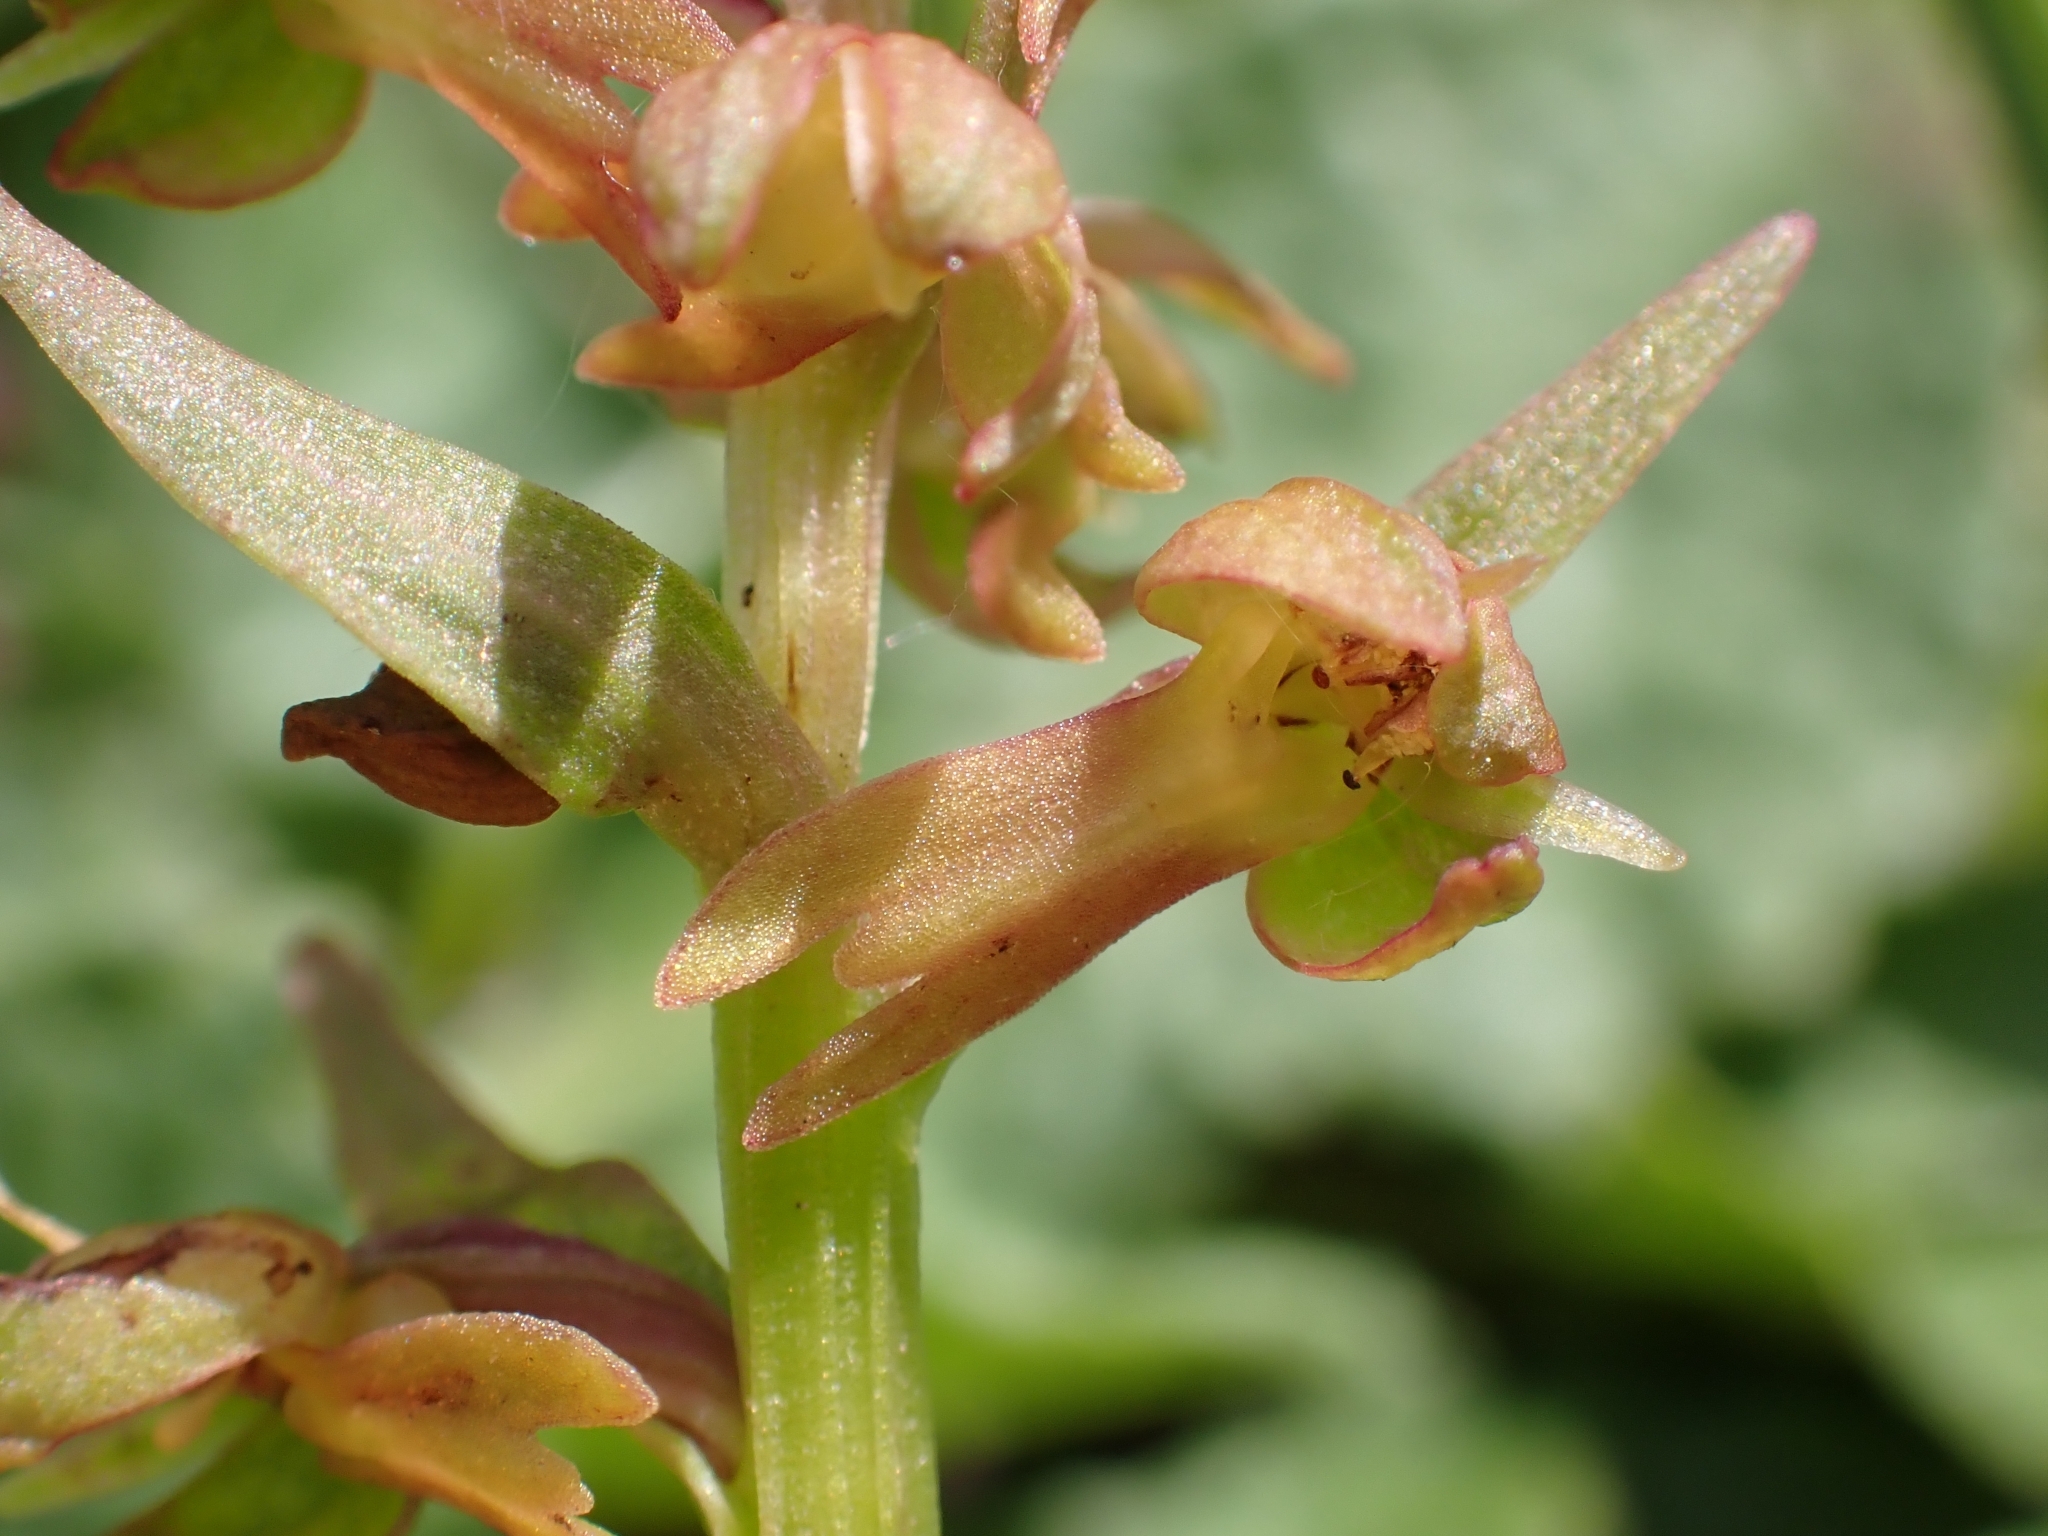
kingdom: Plantae
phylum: Tracheophyta
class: Liliopsida
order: Asparagales
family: Orchidaceae
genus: Dactylorhiza
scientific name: Dactylorhiza viridis
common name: Longbract frog orchid
